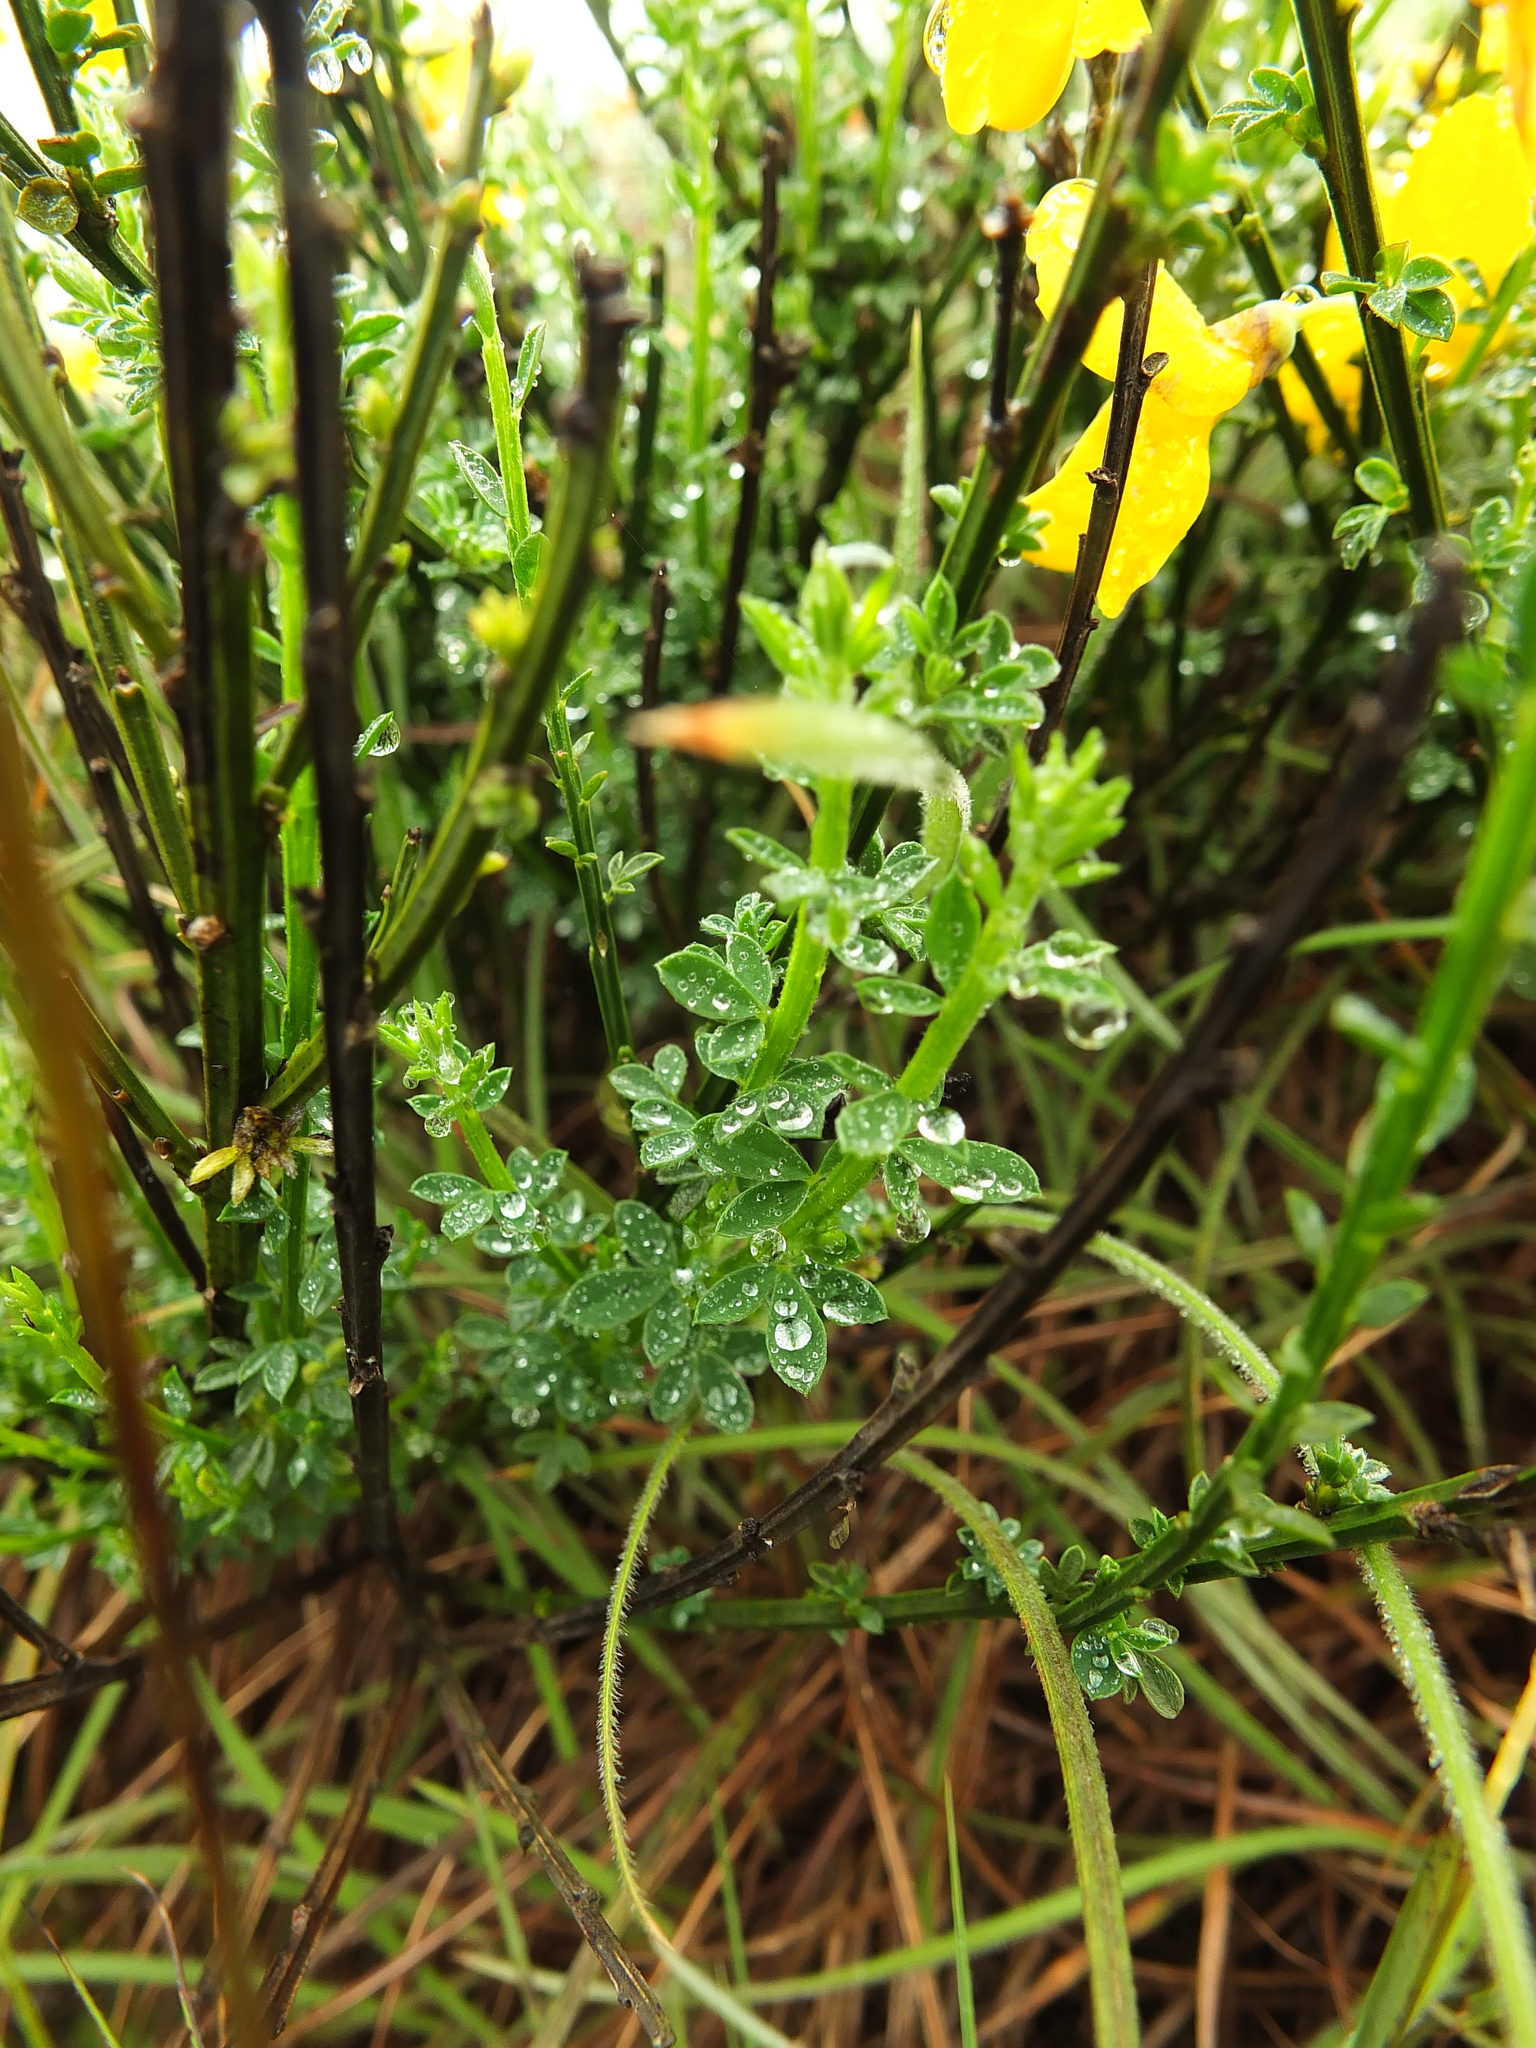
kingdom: Plantae
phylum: Tracheophyta
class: Magnoliopsida
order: Fabales
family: Fabaceae
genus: Cytisus
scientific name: Cytisus scoparius
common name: Scotch broom
